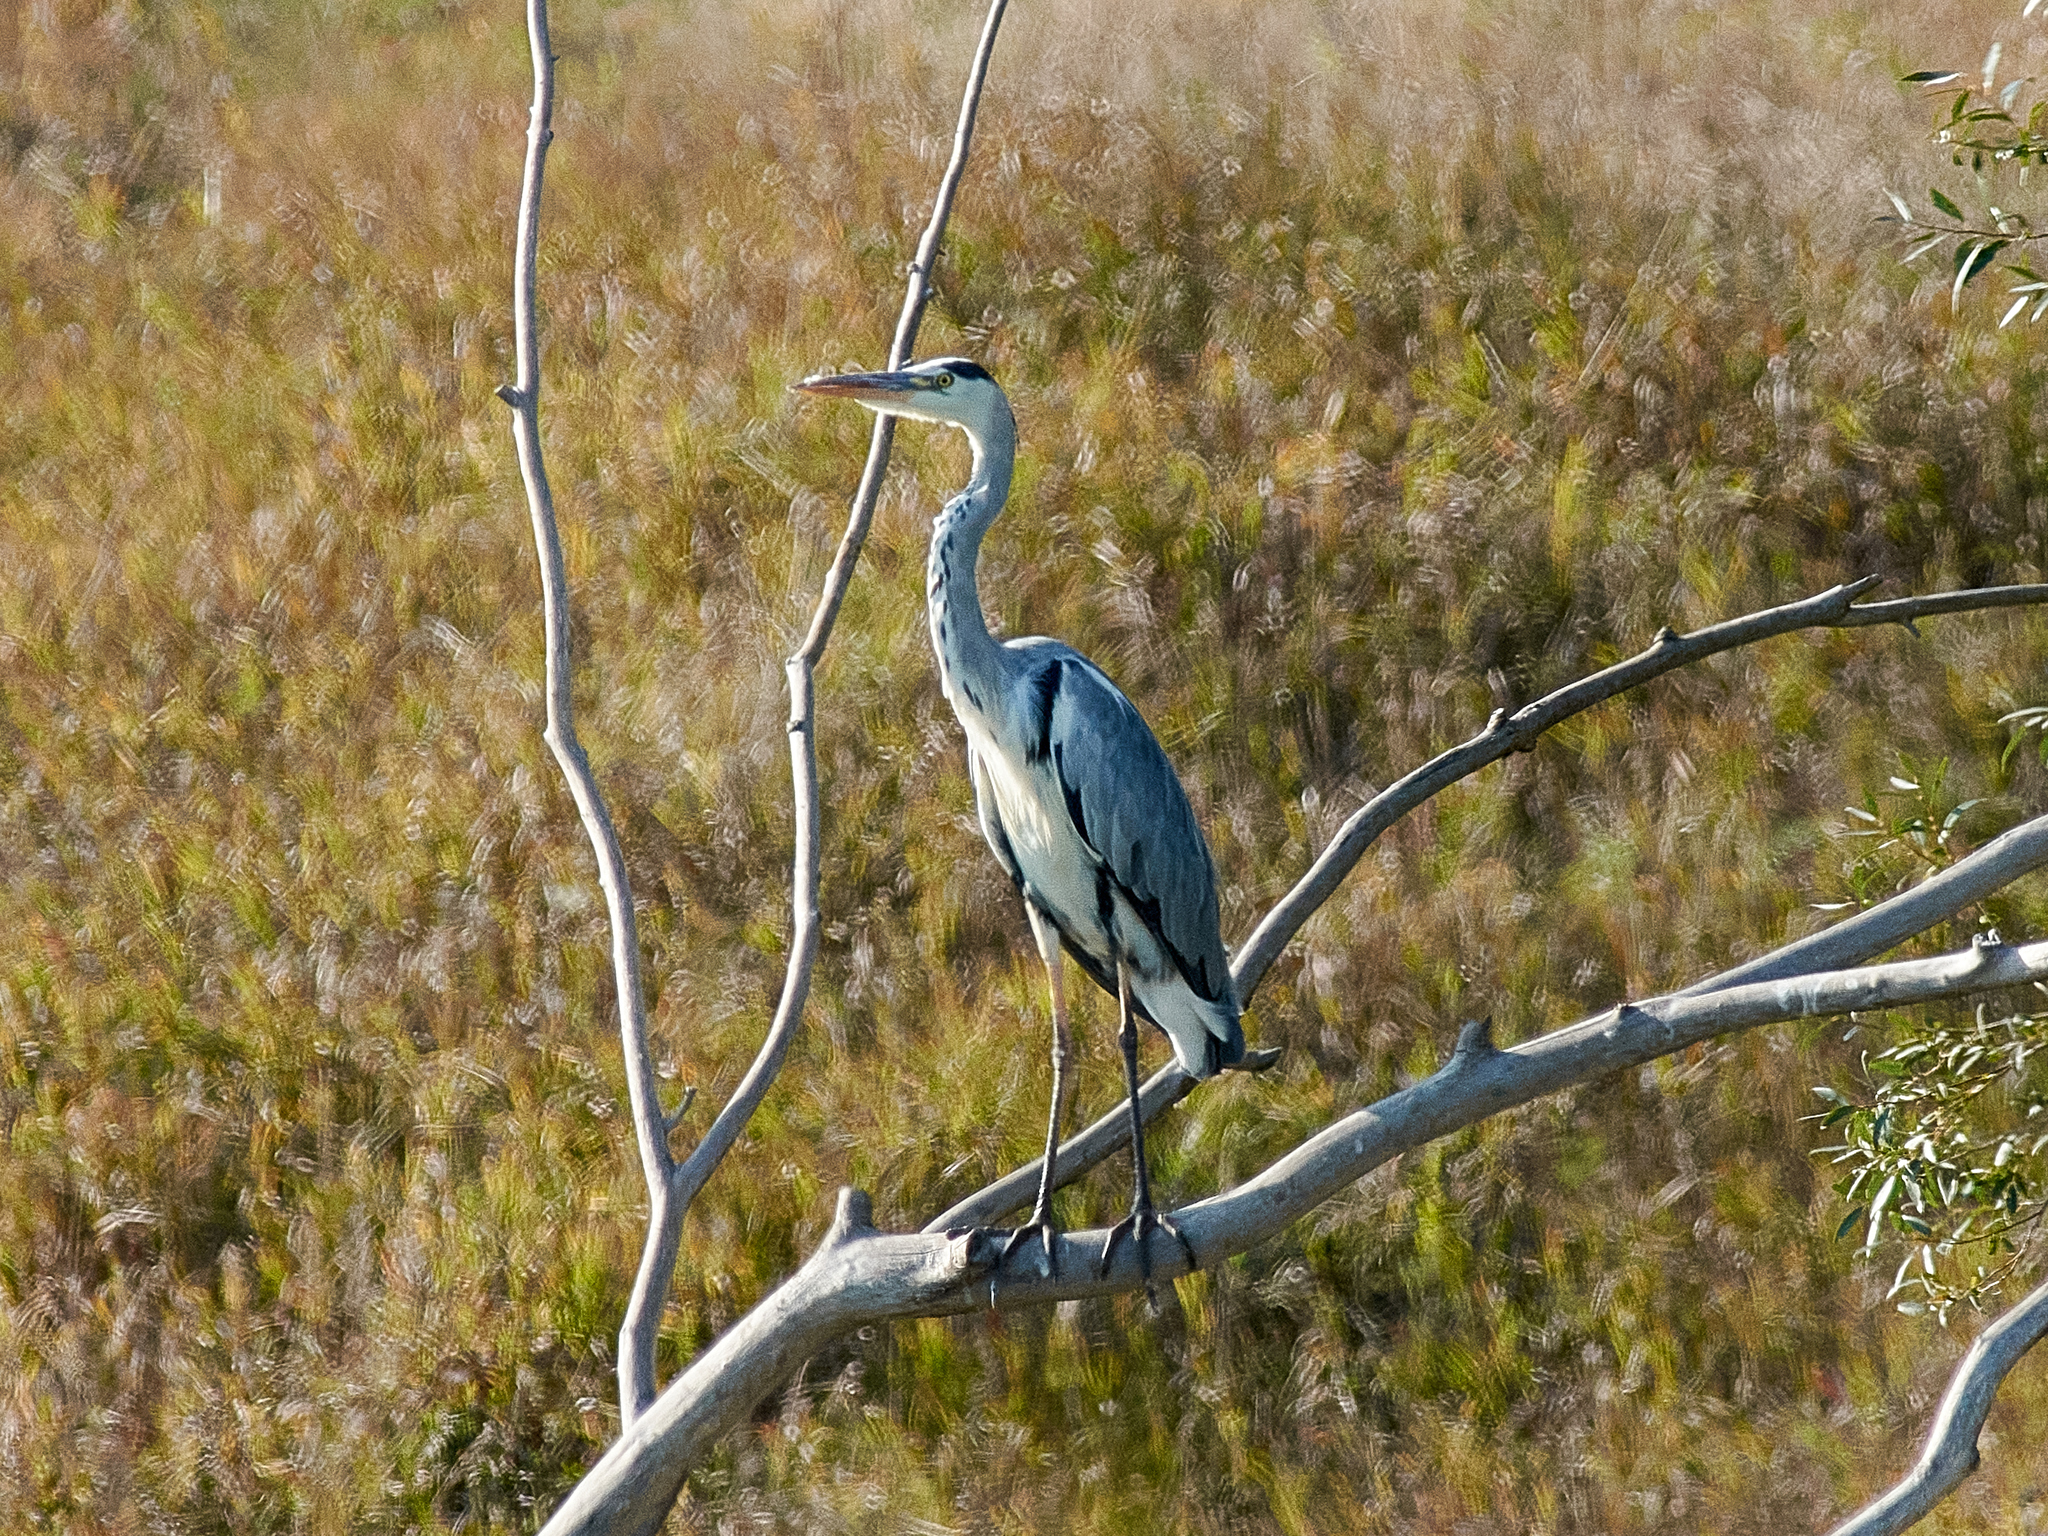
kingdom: Animalia
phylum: Chordata
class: Aves
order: Pelecaniformes
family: Ardeidae
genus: Ardea
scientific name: Ardea cinerea
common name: Grey heron
